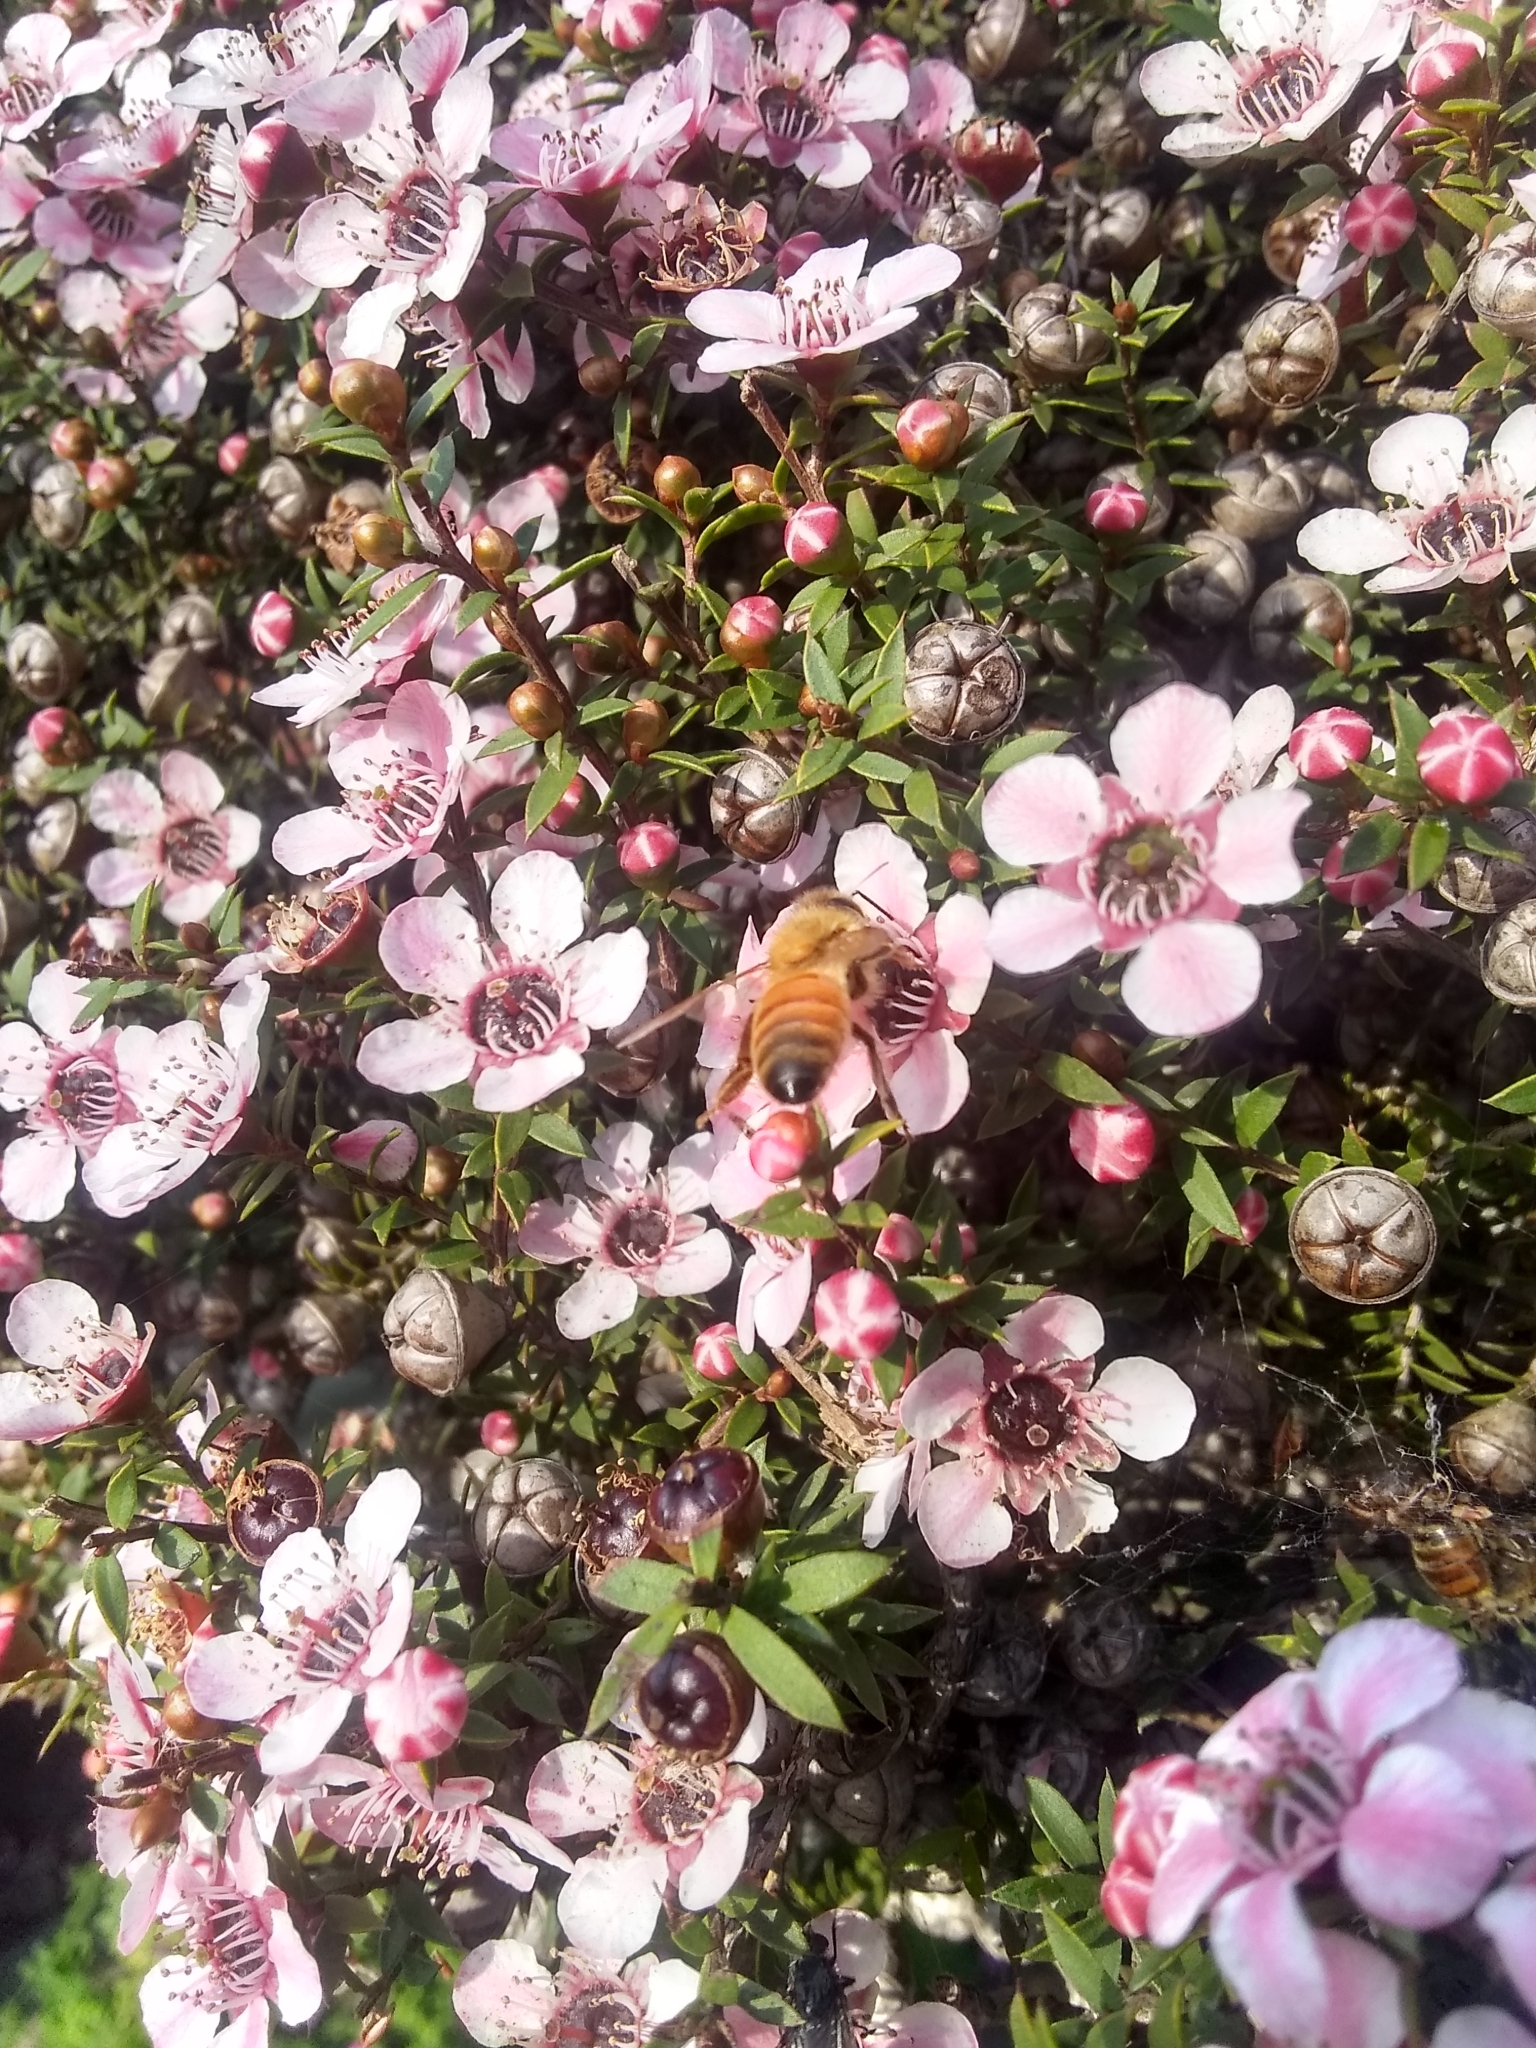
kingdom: Animalia
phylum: Arthropoda
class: Insecta
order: Hymenoptera
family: Apidae
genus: Apis
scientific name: Apis mellifera
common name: Honey bee
